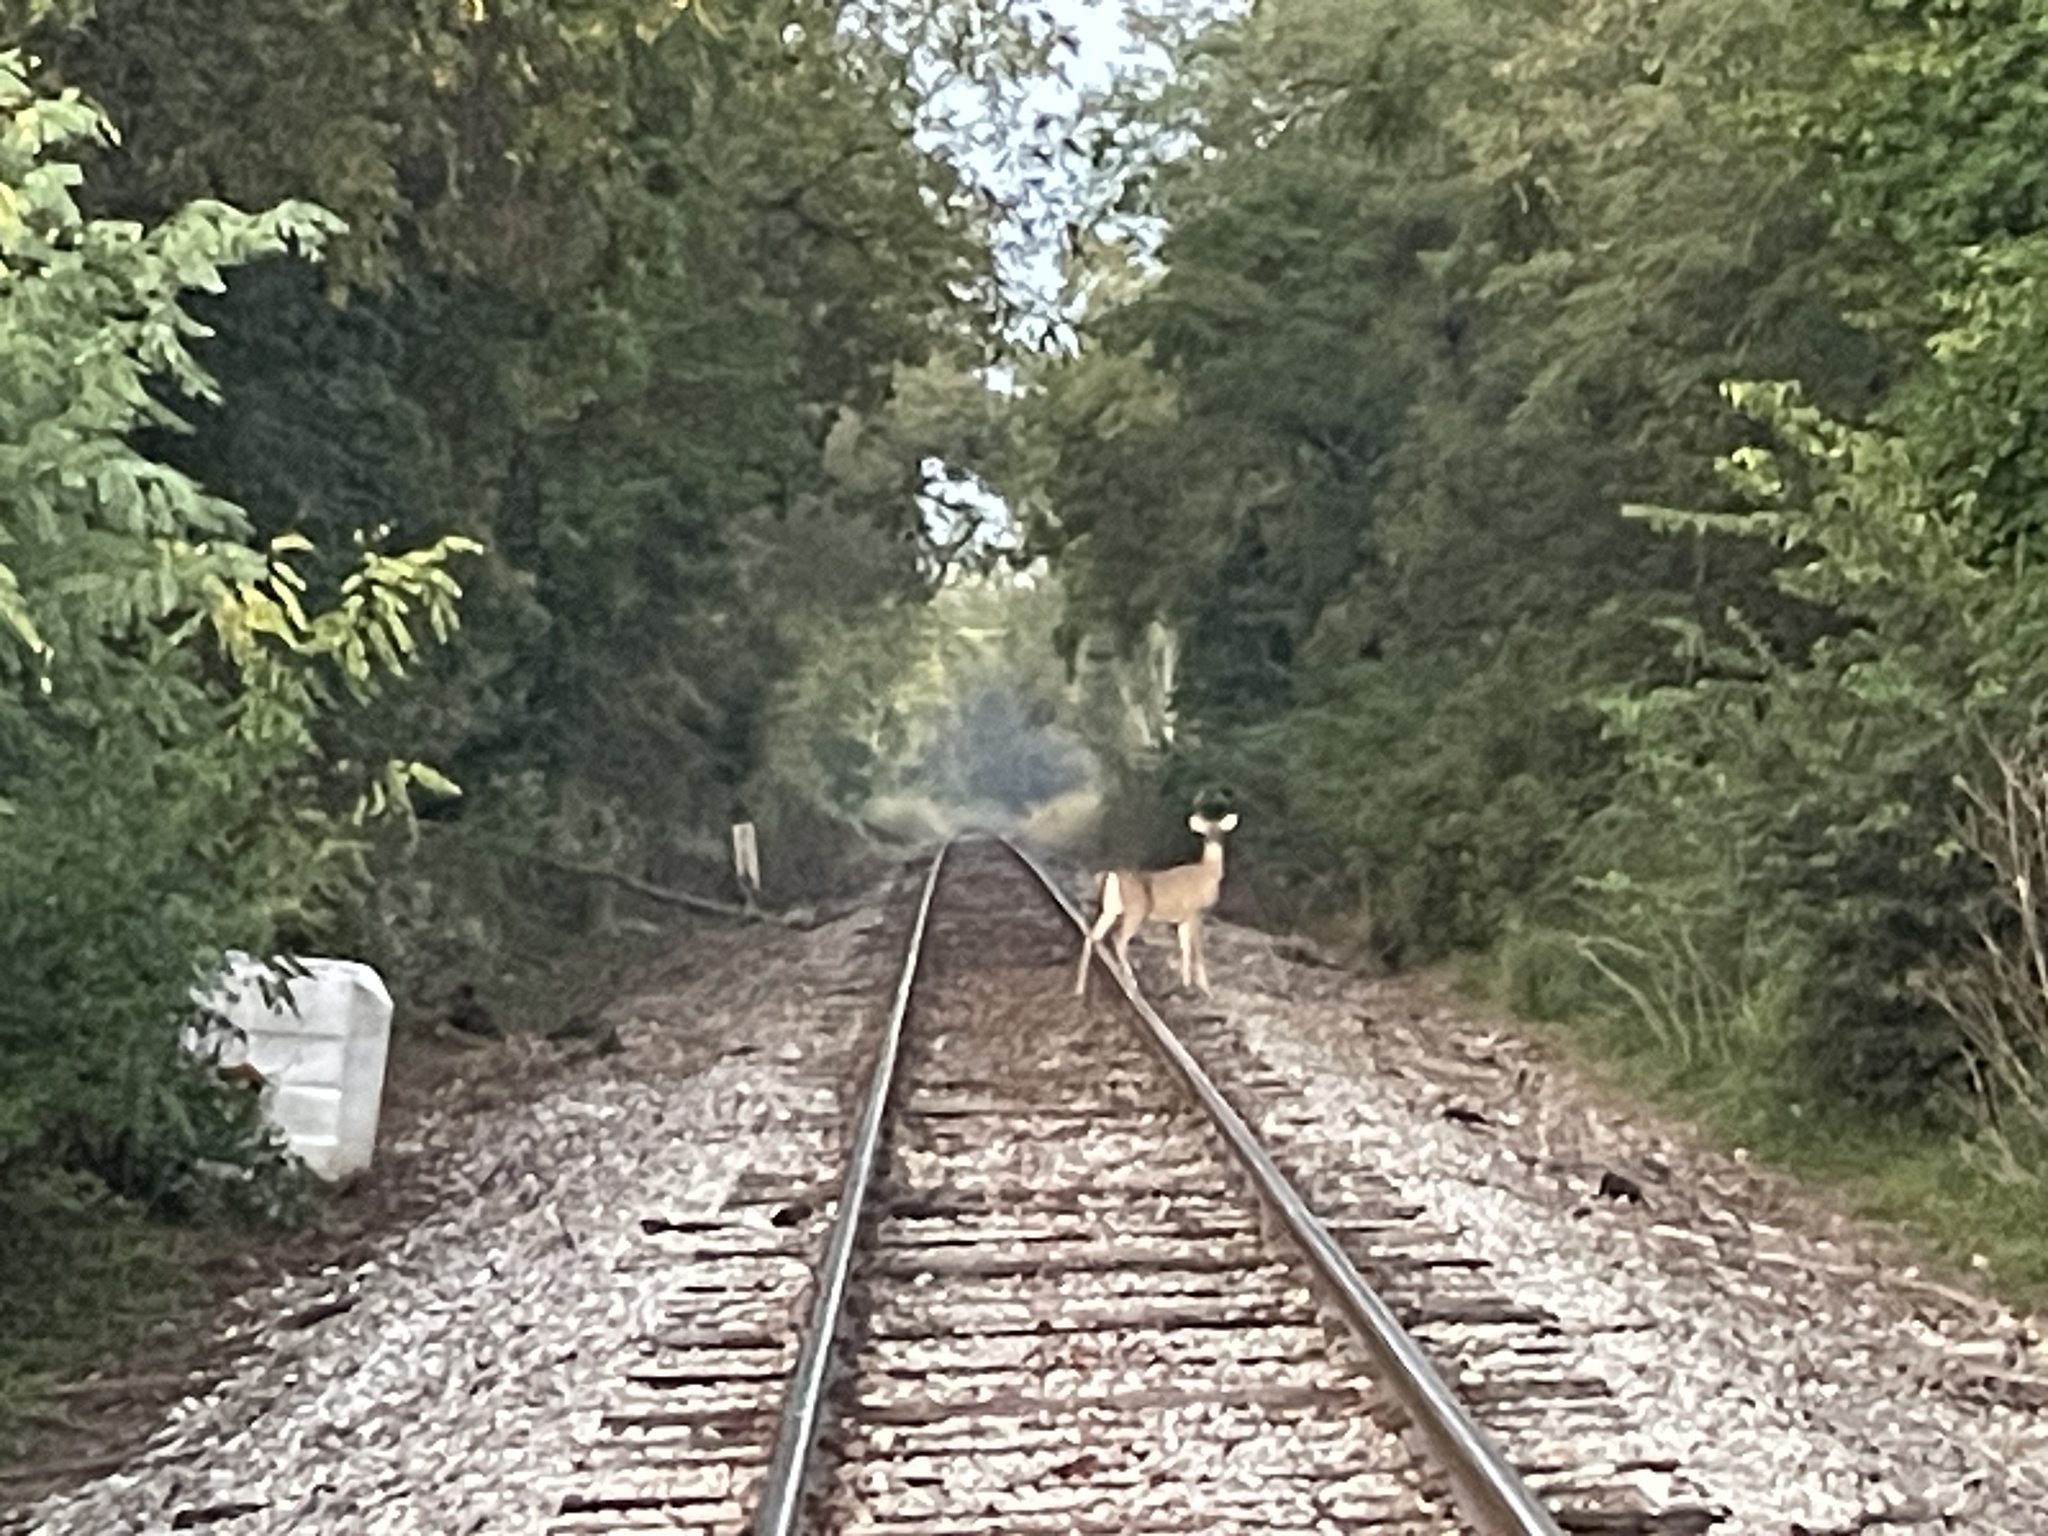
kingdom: Animalia
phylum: Chordata
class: Mammalia
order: Artiodactyla
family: Cervidae
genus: Odocoileus
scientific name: Odocoileus virginianus
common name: White-tailed deer
